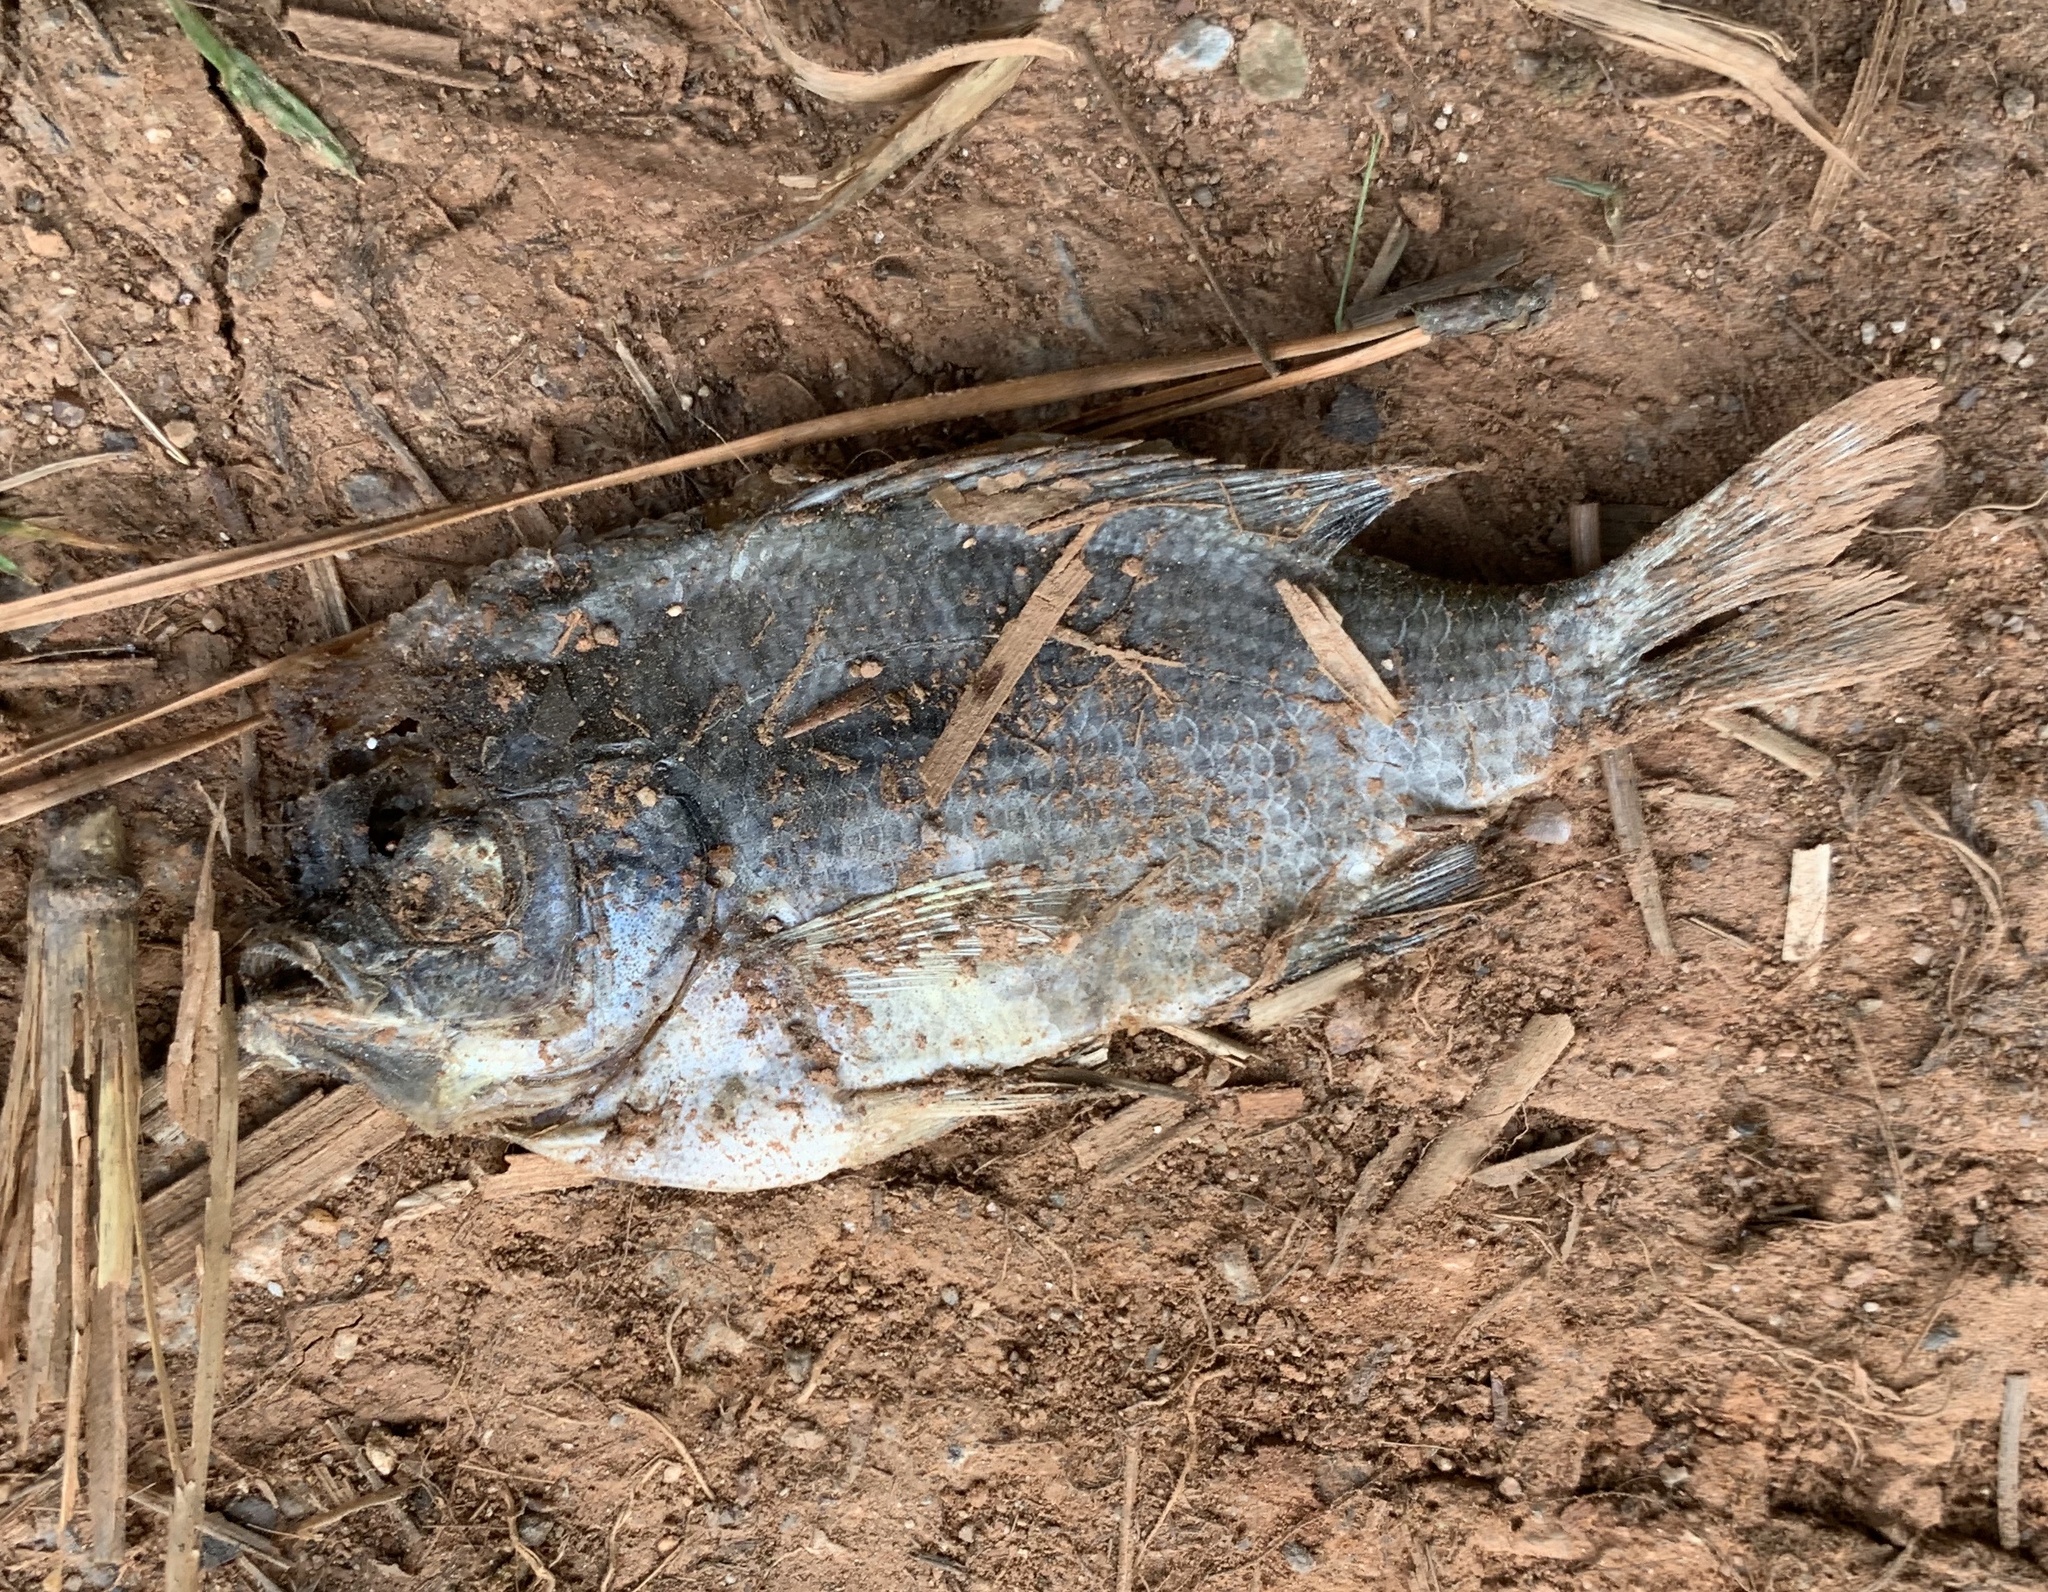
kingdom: Animalia
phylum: Chordata
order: Perciformes
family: Centrarchidae
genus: Lepomis
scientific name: Lepomis macrochirus
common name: Bluegill
